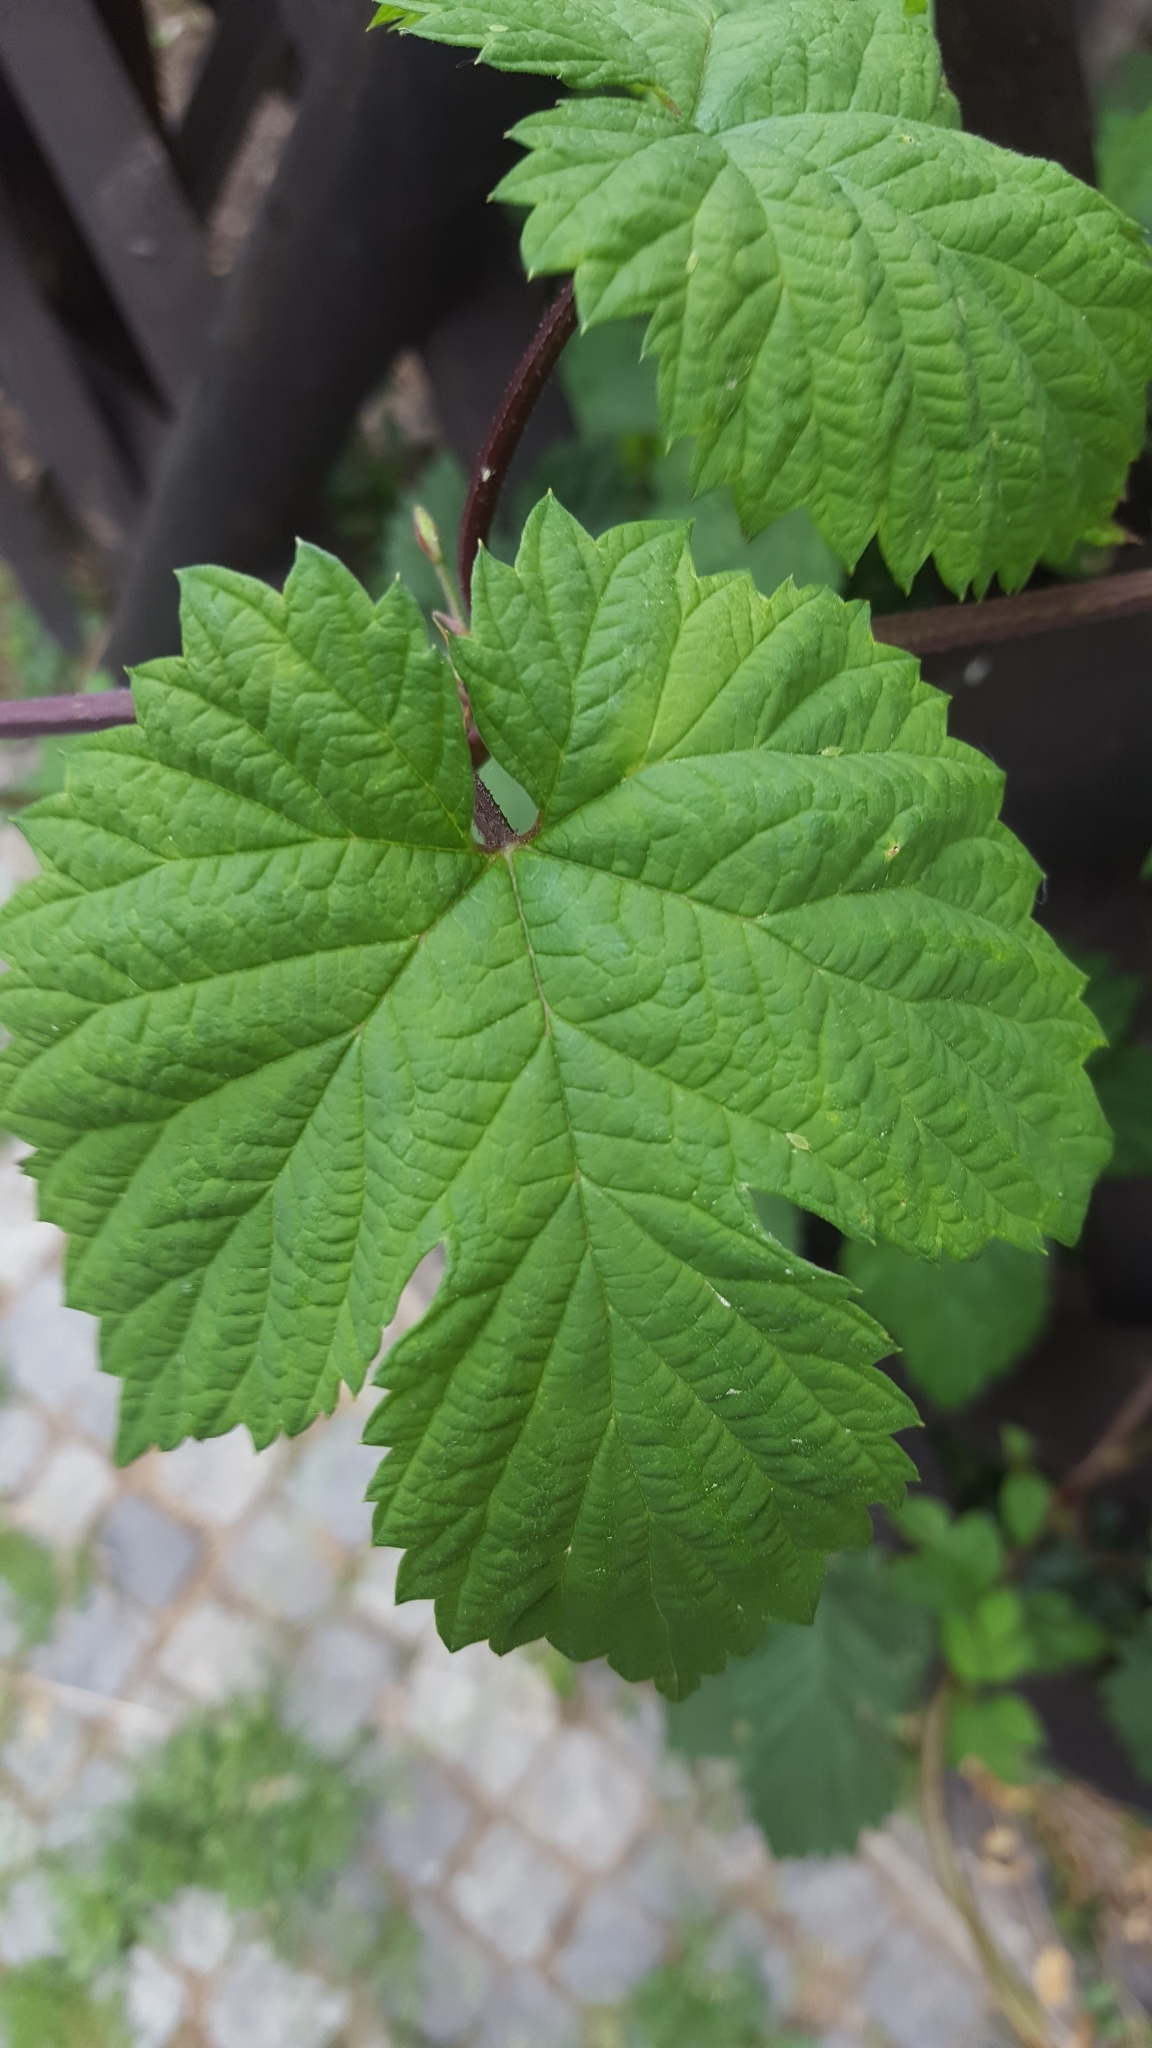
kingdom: Plantae
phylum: Tracheophyta
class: Magnoliopsida
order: Rosales
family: Cannabaceae
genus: Humulus
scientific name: Humulus lupulus
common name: Hop
